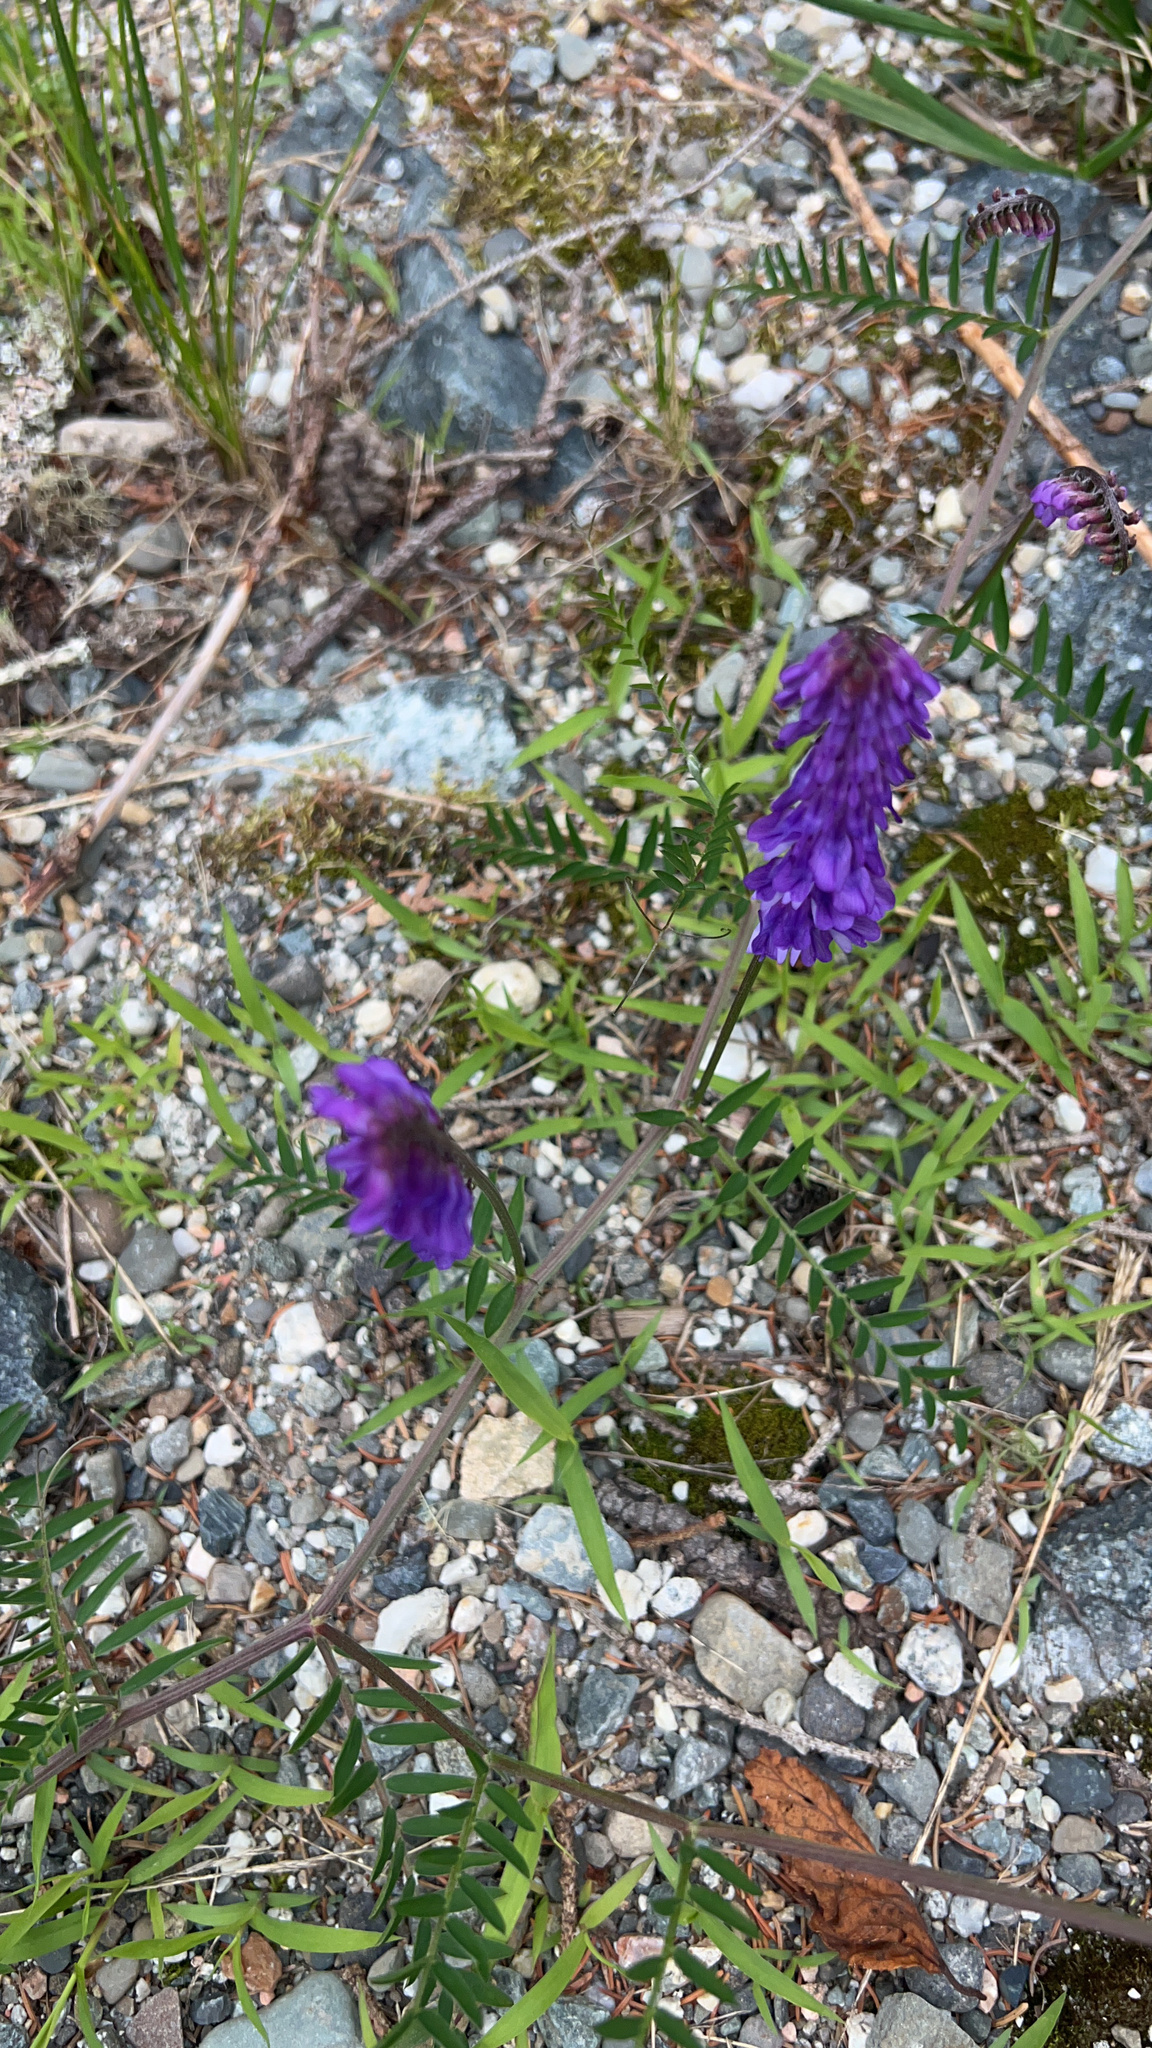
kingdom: Plantae
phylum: Tracheophyta
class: Magnoliopsida
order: Fabales
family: Fabaceae
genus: Vicia
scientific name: Vicia cracca
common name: Bird vetch
